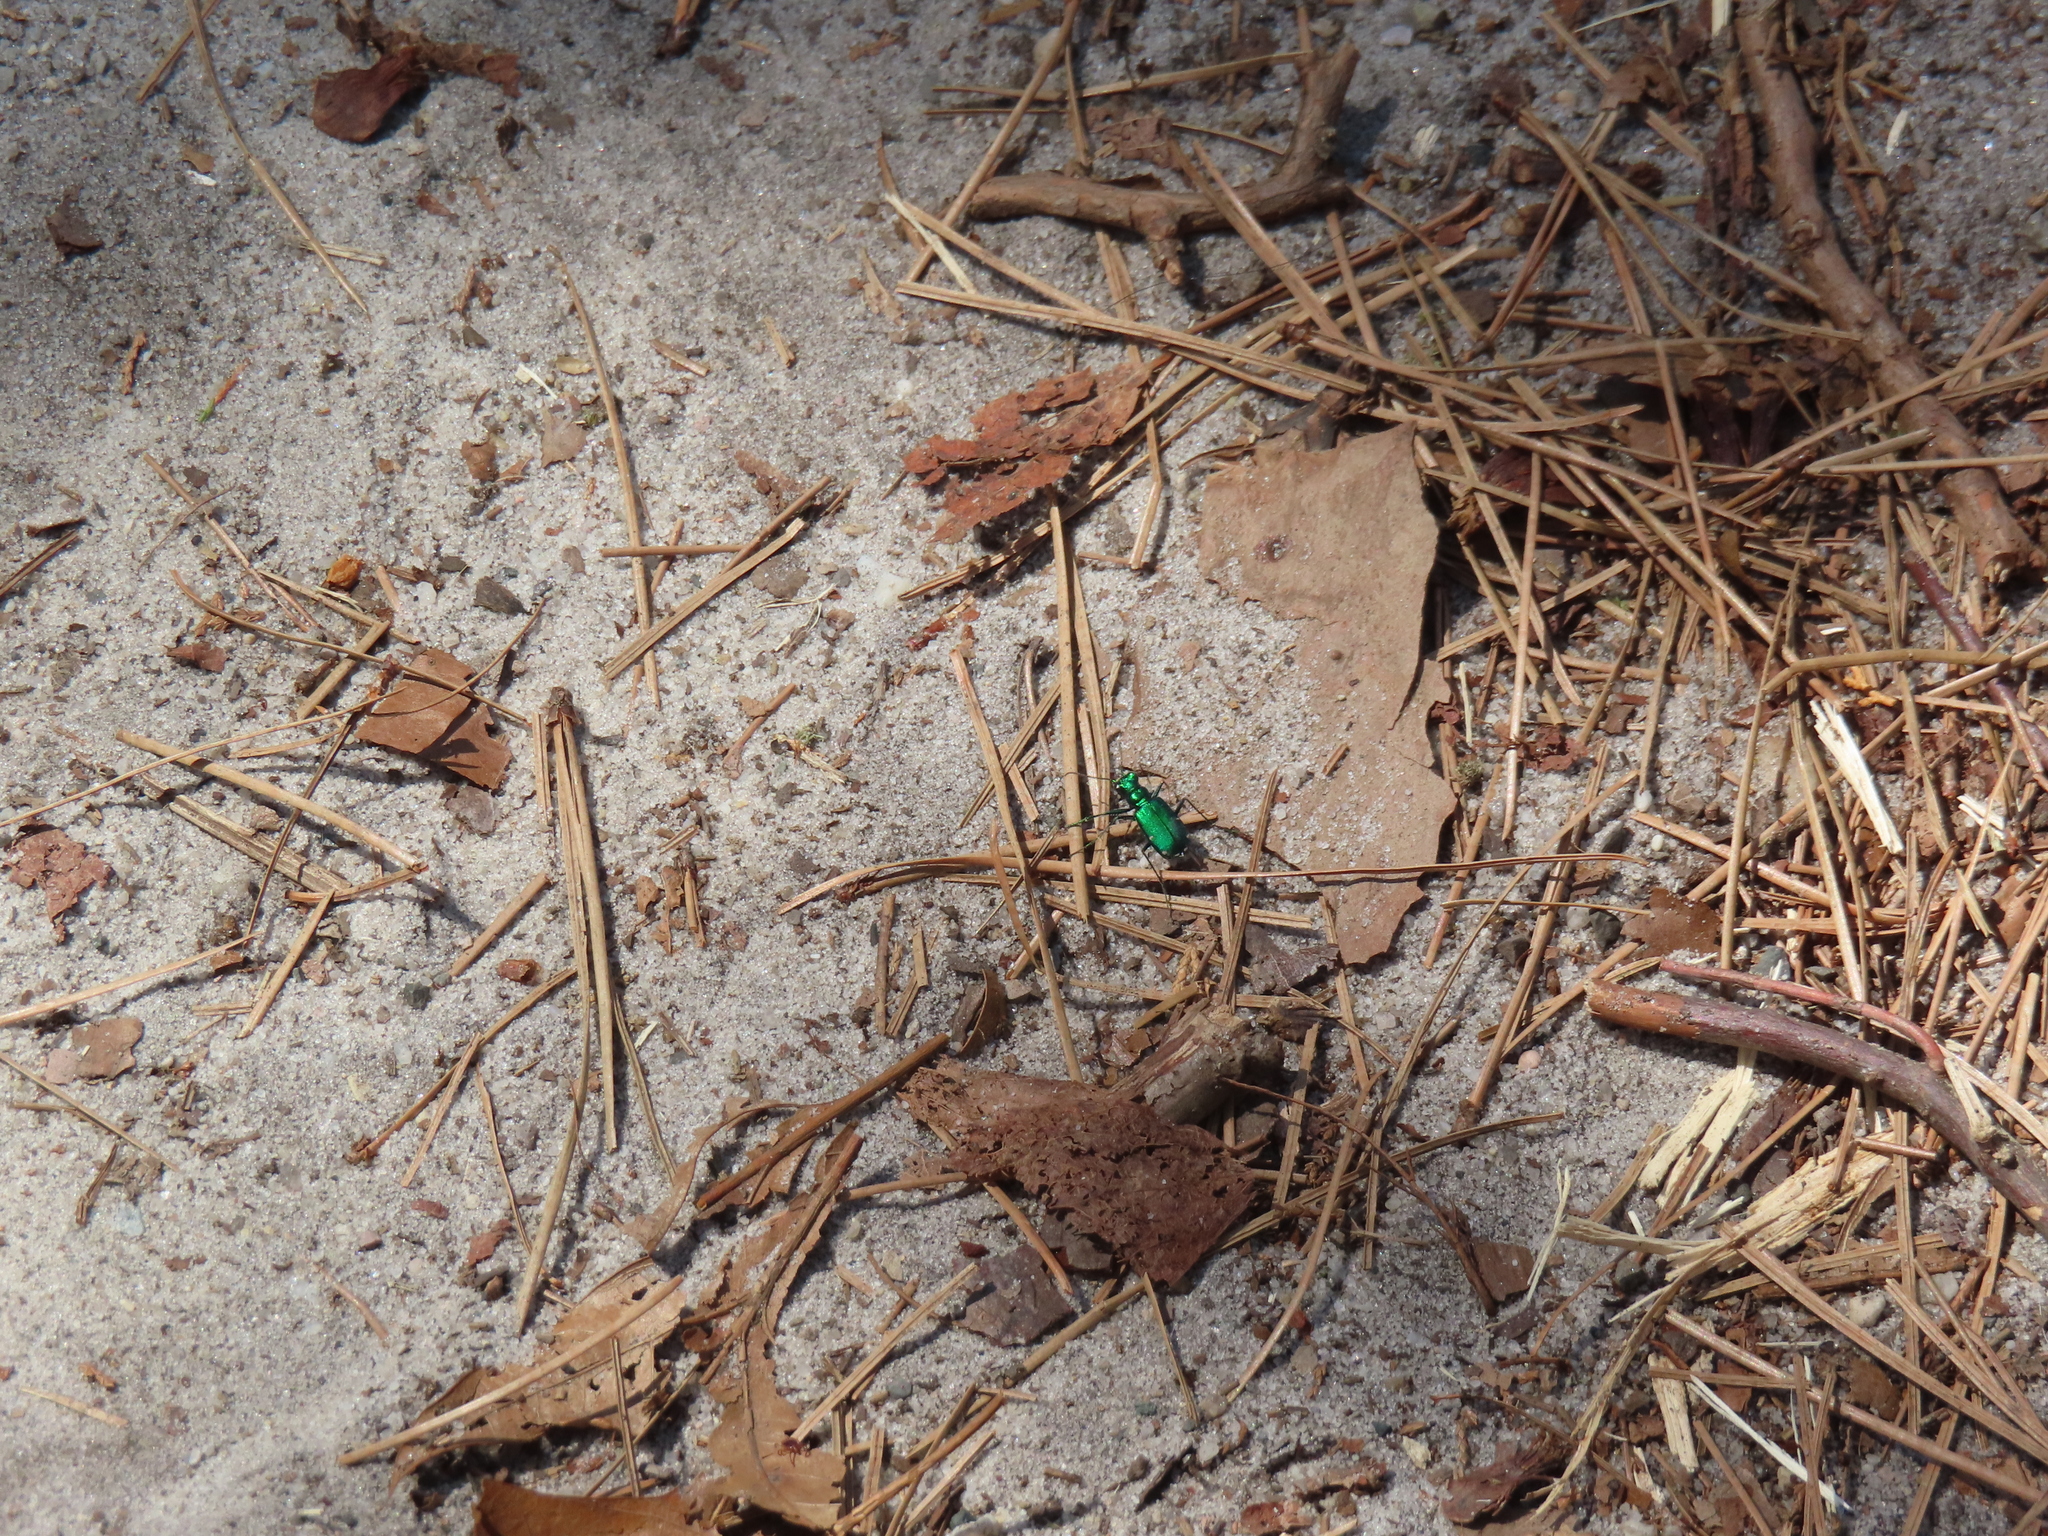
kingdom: Animalia
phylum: Arthropoda
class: Insecta
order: Coleoptera
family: Carabidae
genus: Cicindela
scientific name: Cicindela sexguttata
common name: Six-spotted tiger beetle
